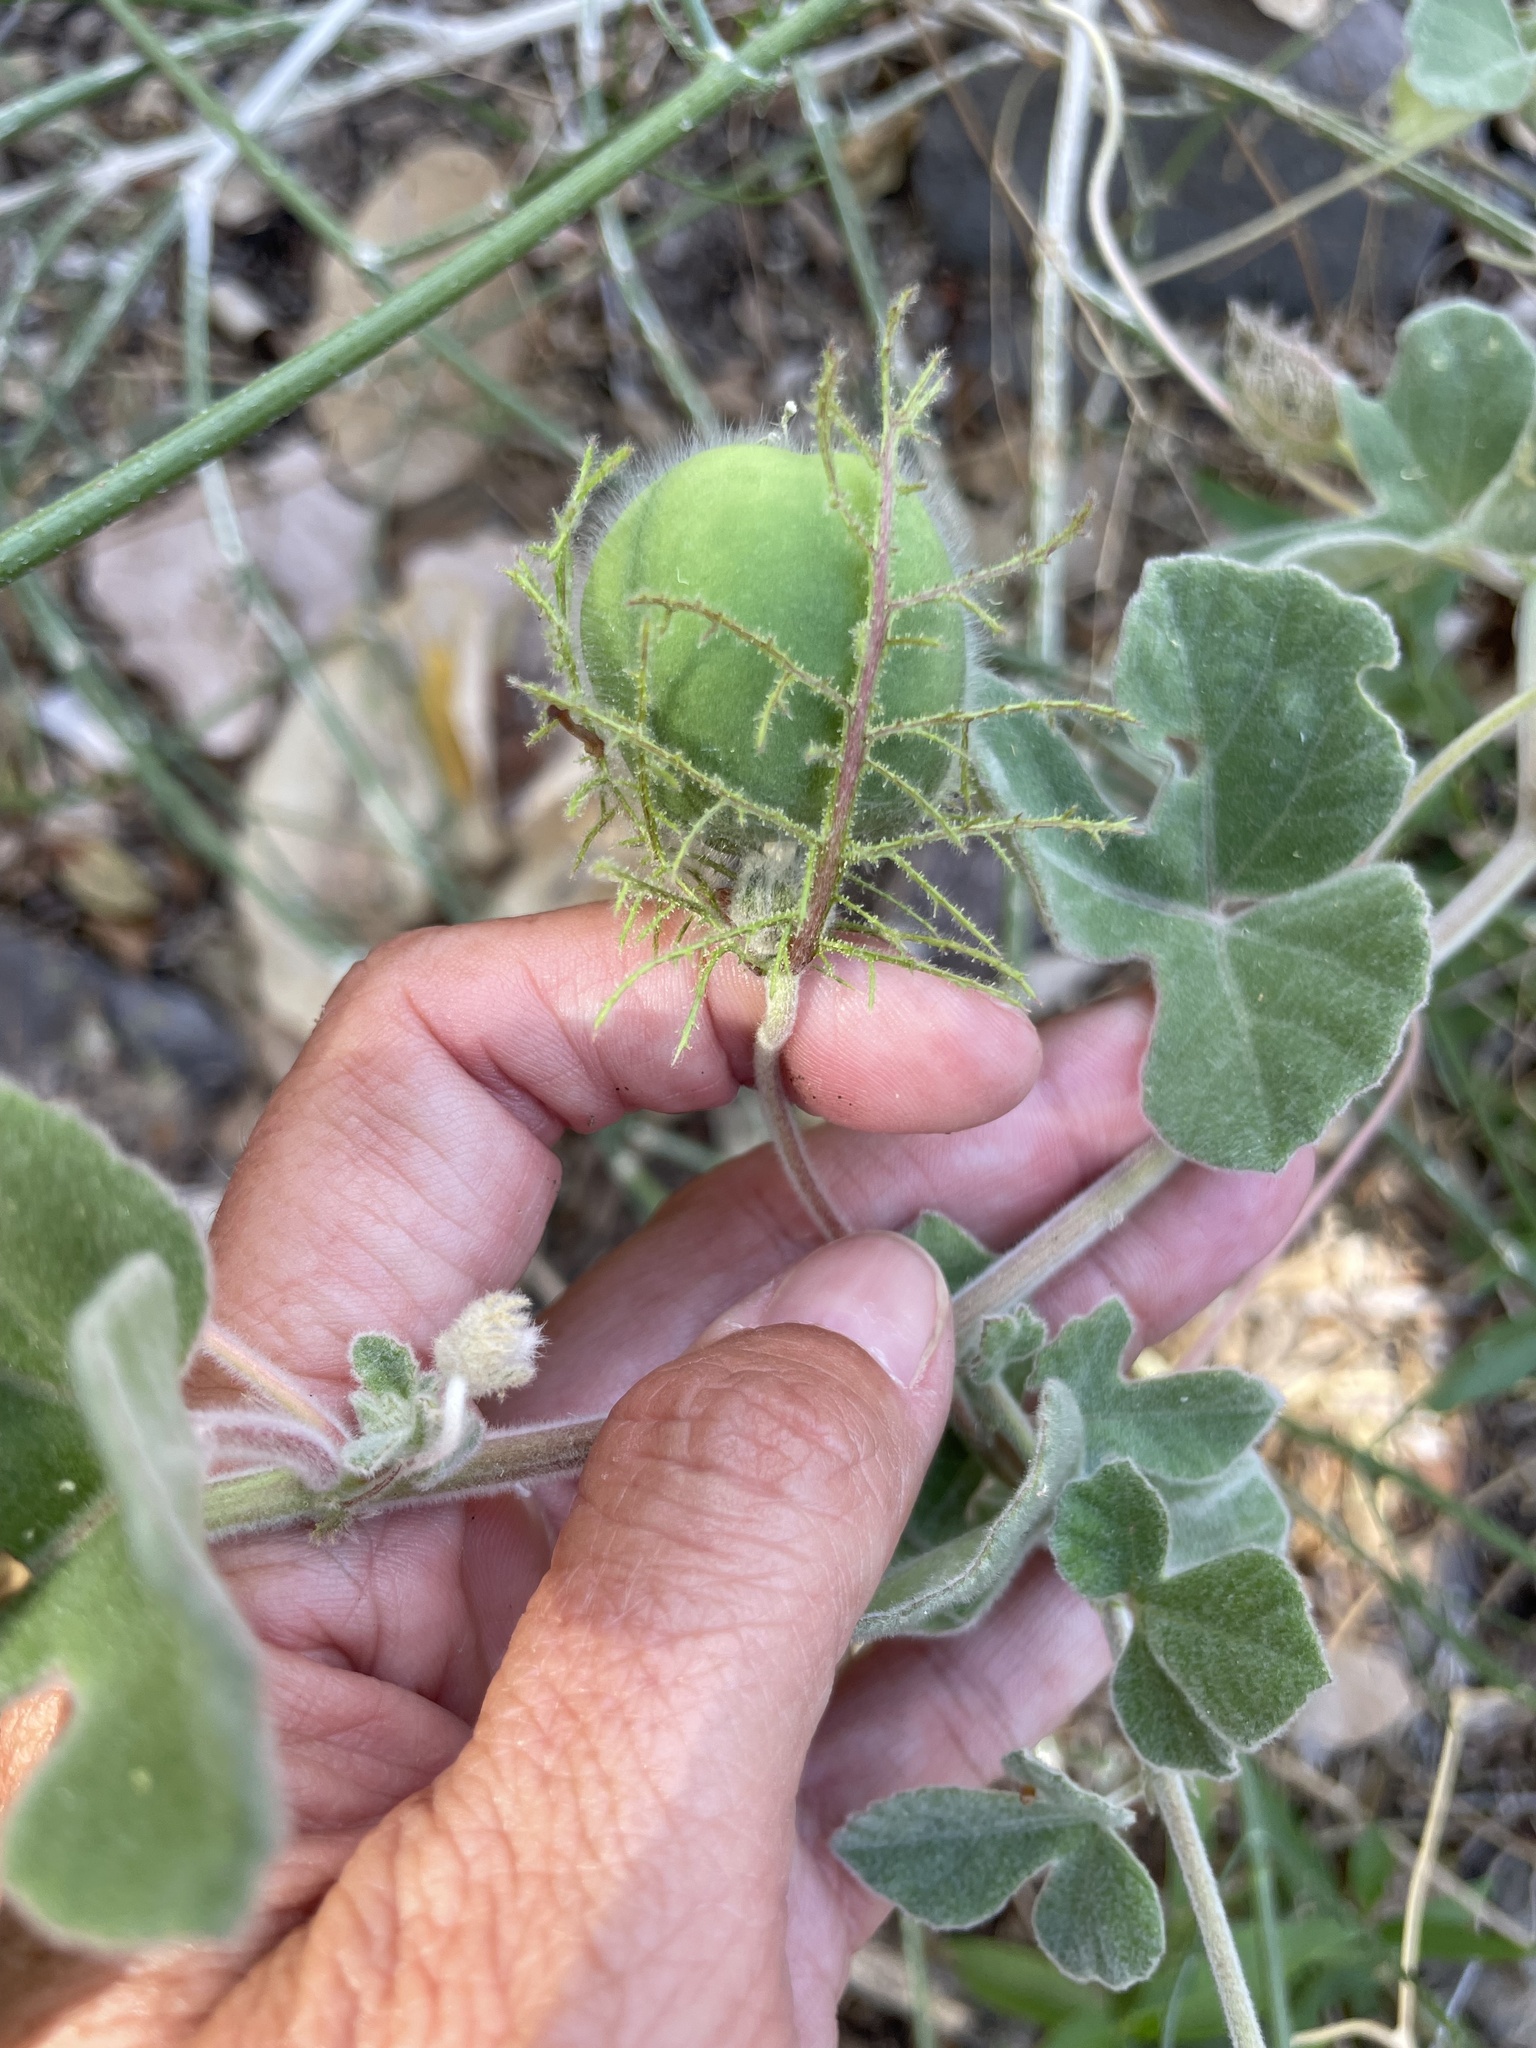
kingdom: Plantae
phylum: Tracheophyta
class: Magnoliopsida
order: Malpighiales
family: Passifloraceae
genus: Passiflora
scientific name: Passiflora arida
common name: Desert passionflower
